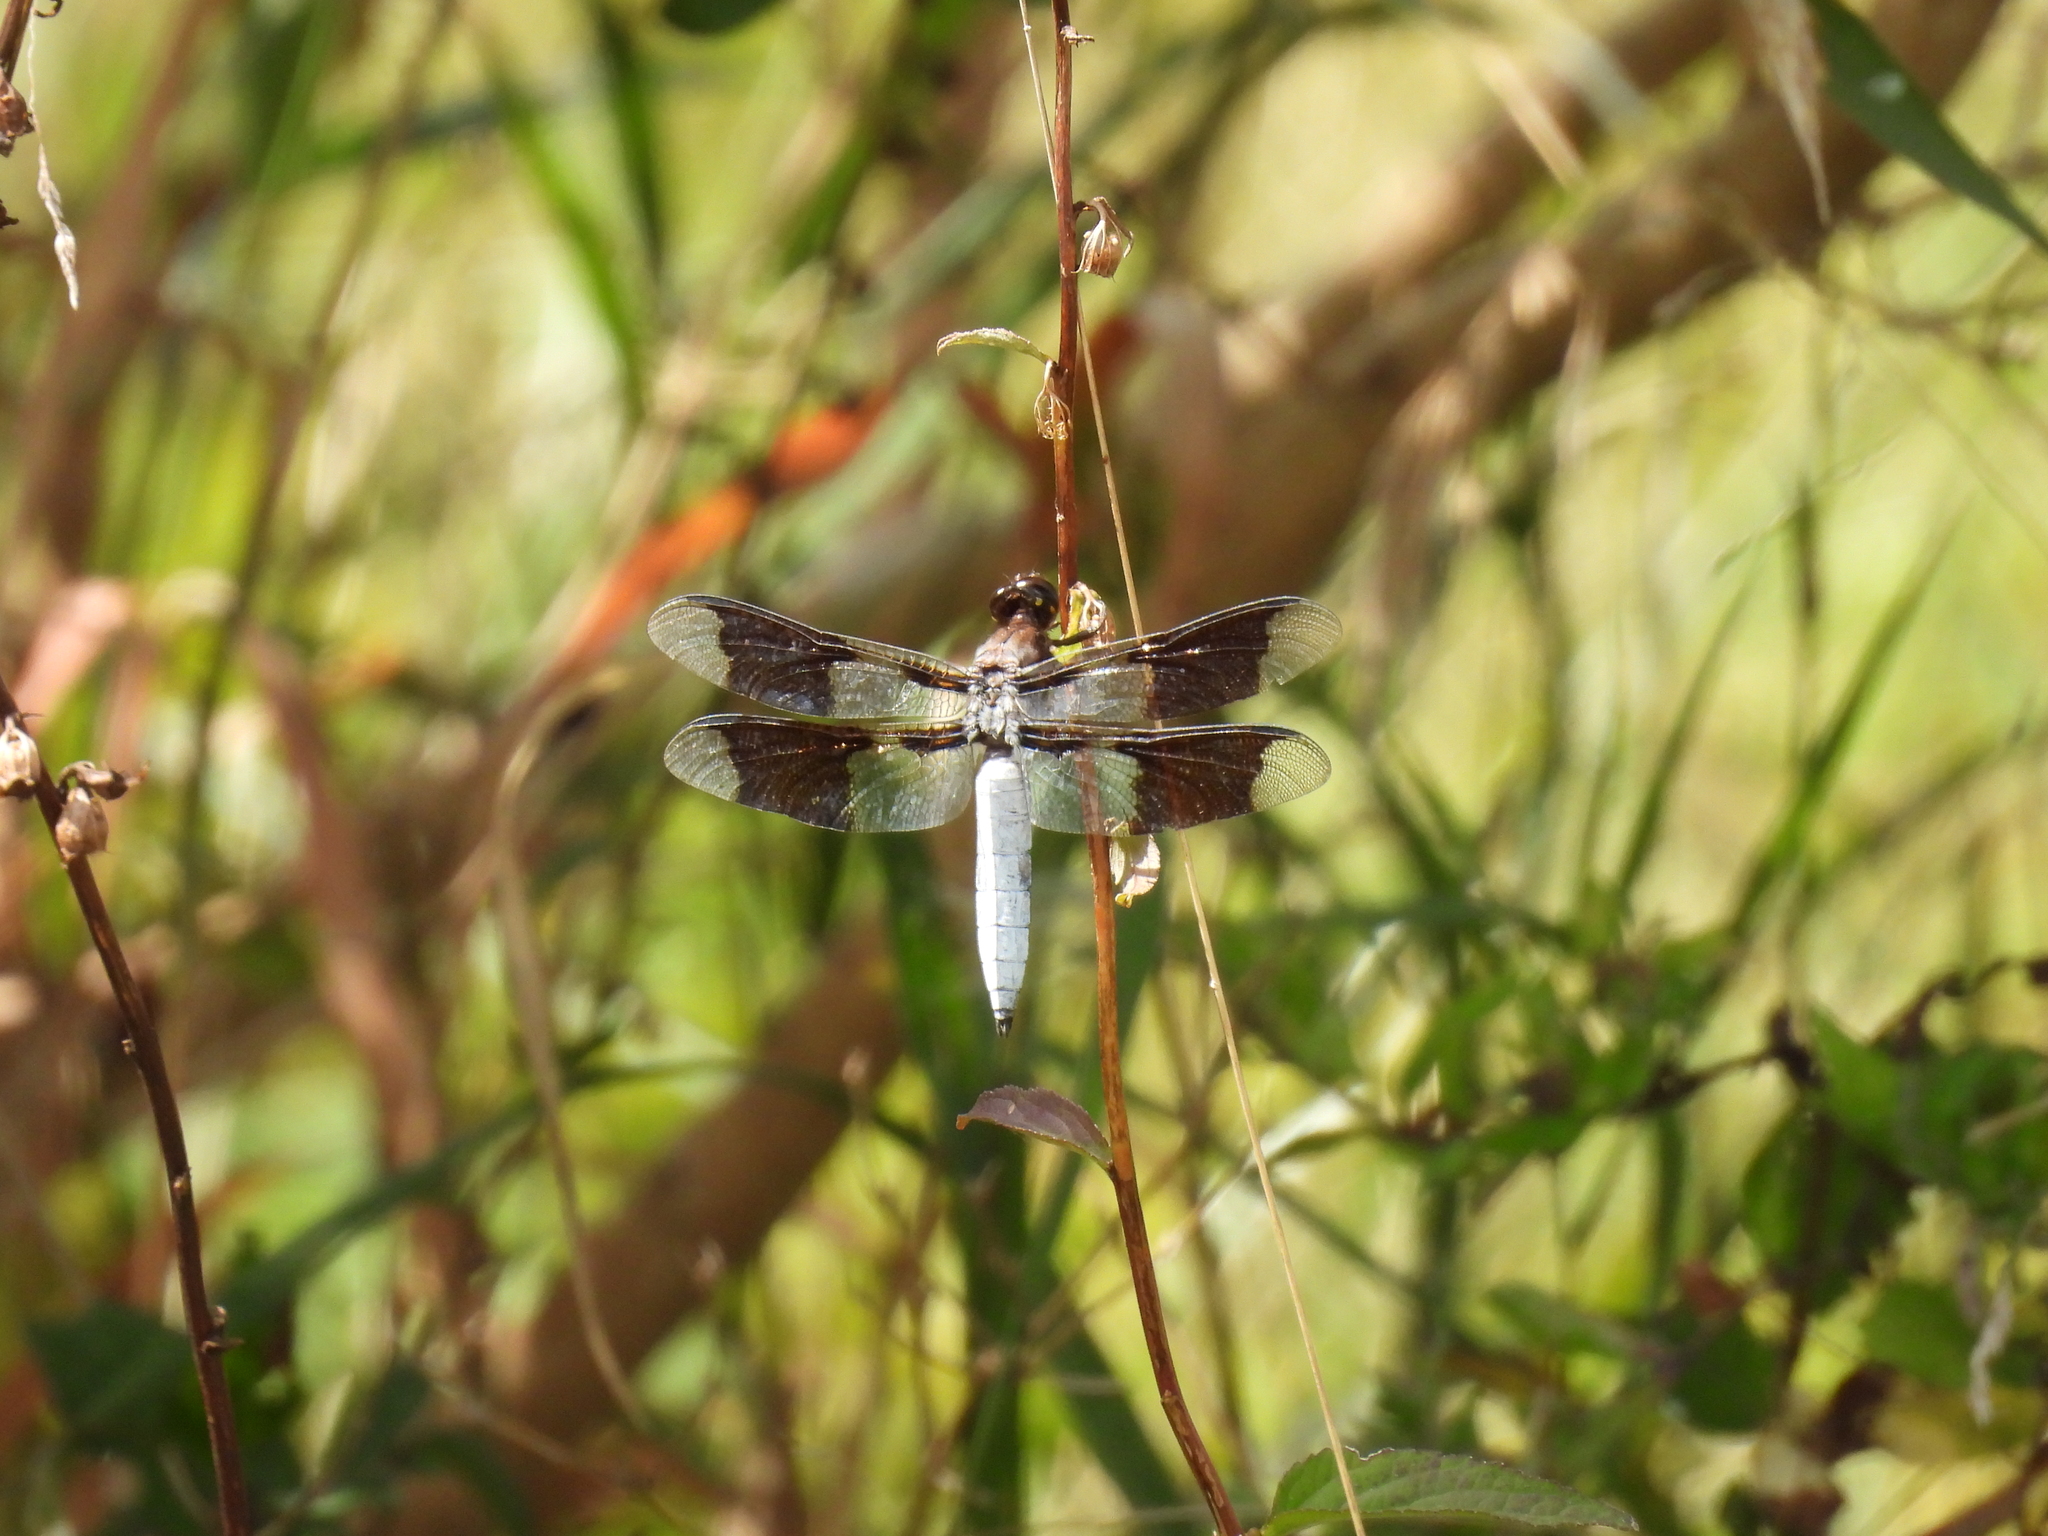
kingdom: Animalia
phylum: Arthropoda
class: Insecta
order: Odonata
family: Libellulidae
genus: Plathemis
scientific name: Plathemis lydia
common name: Common whitetail
